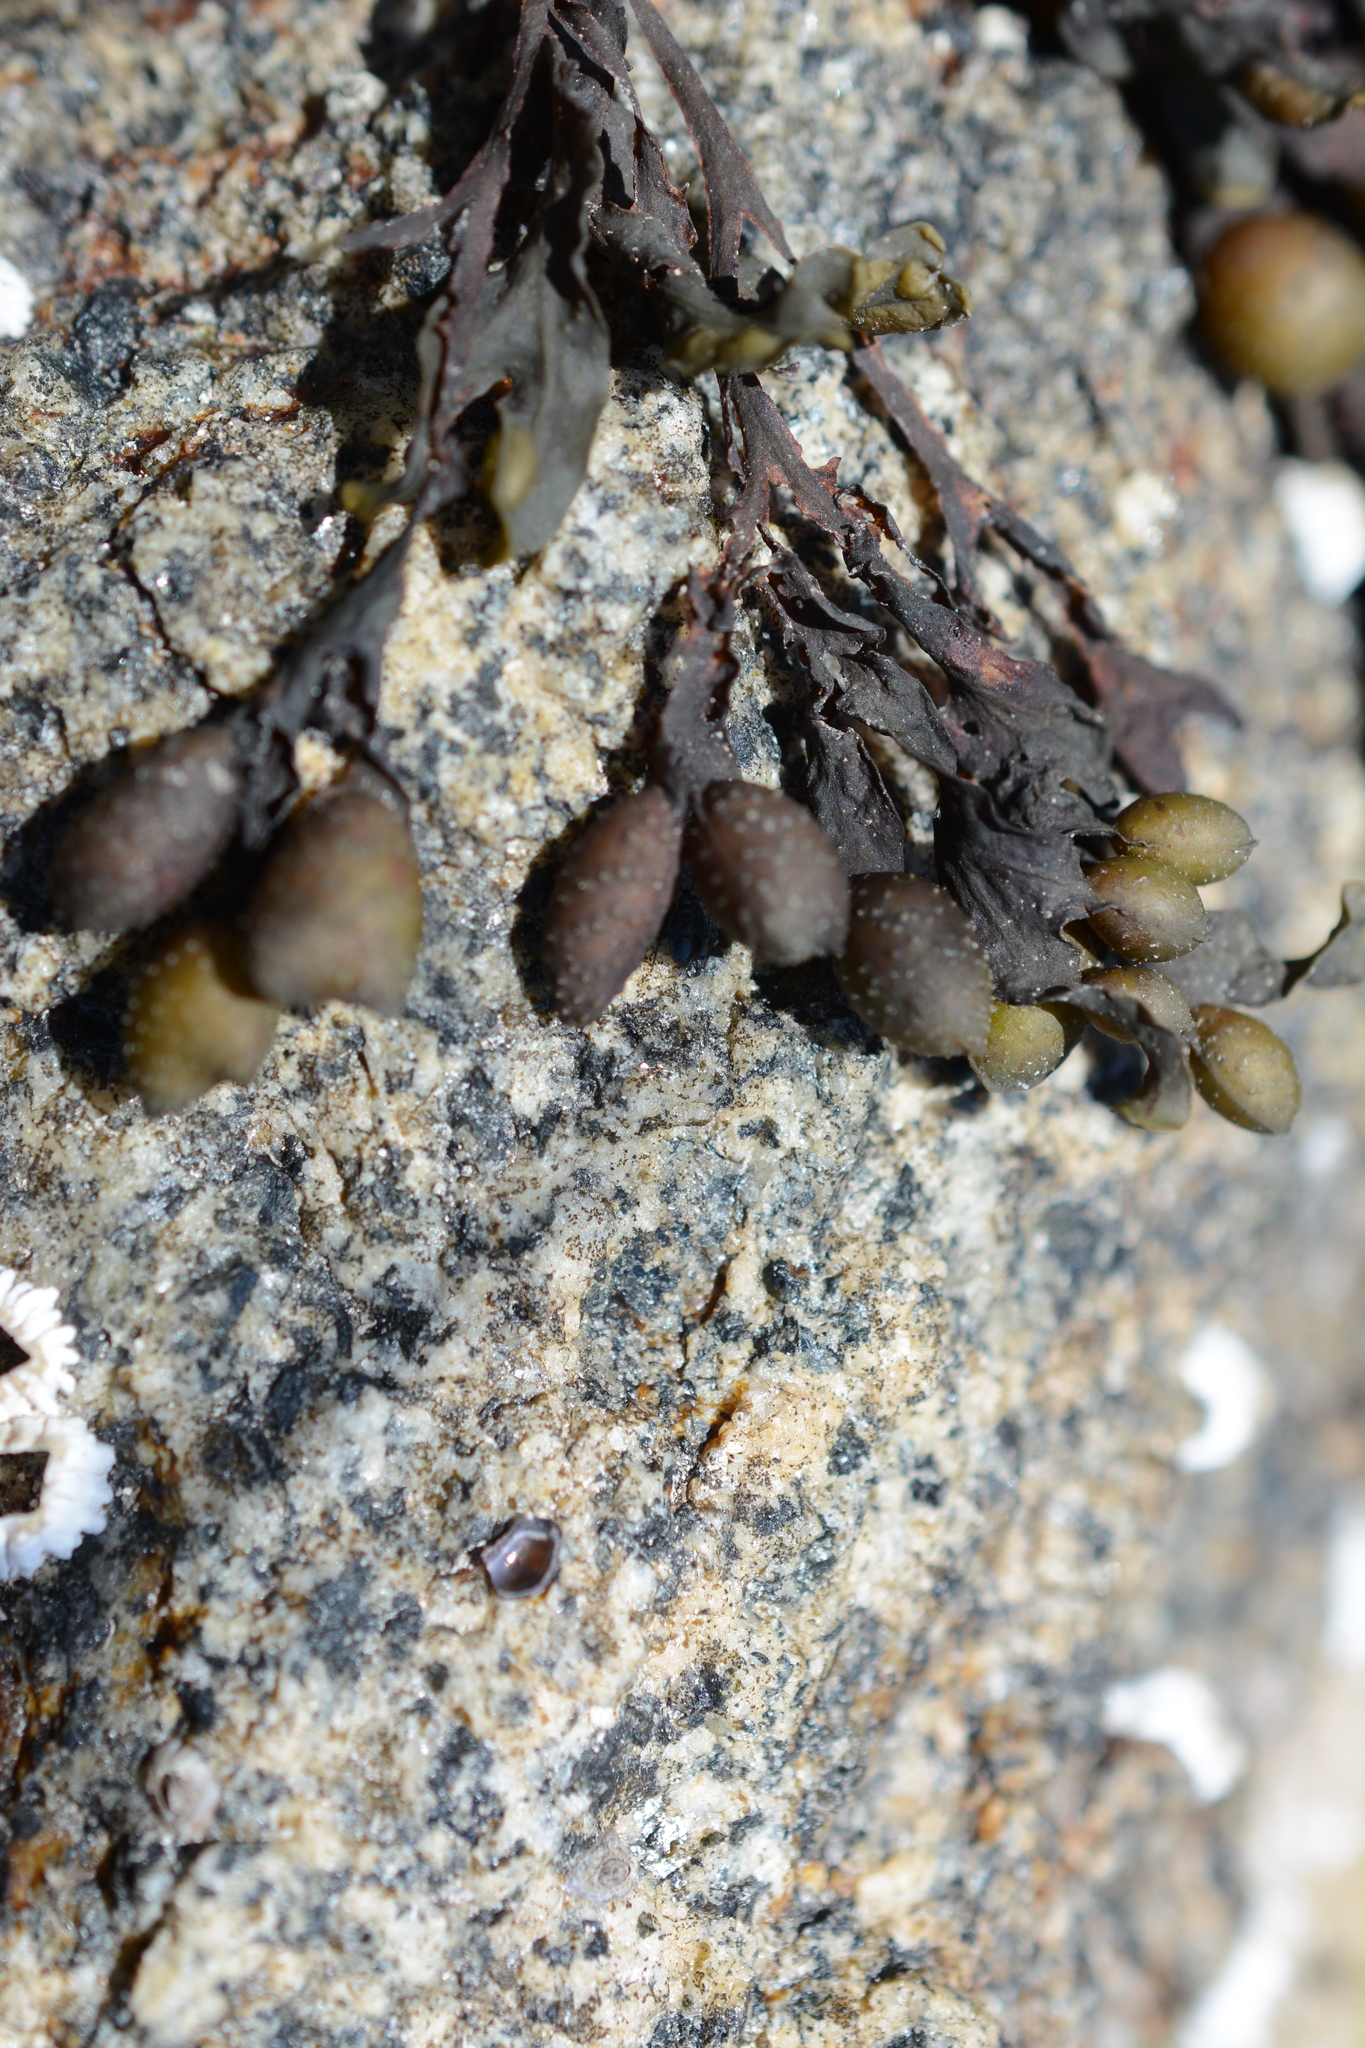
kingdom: Chromista
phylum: Ochrophyta
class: Phaeophyceae
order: Fucales
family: Fucaceae
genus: Fucus
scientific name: Fucus distichus
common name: Rockweed
